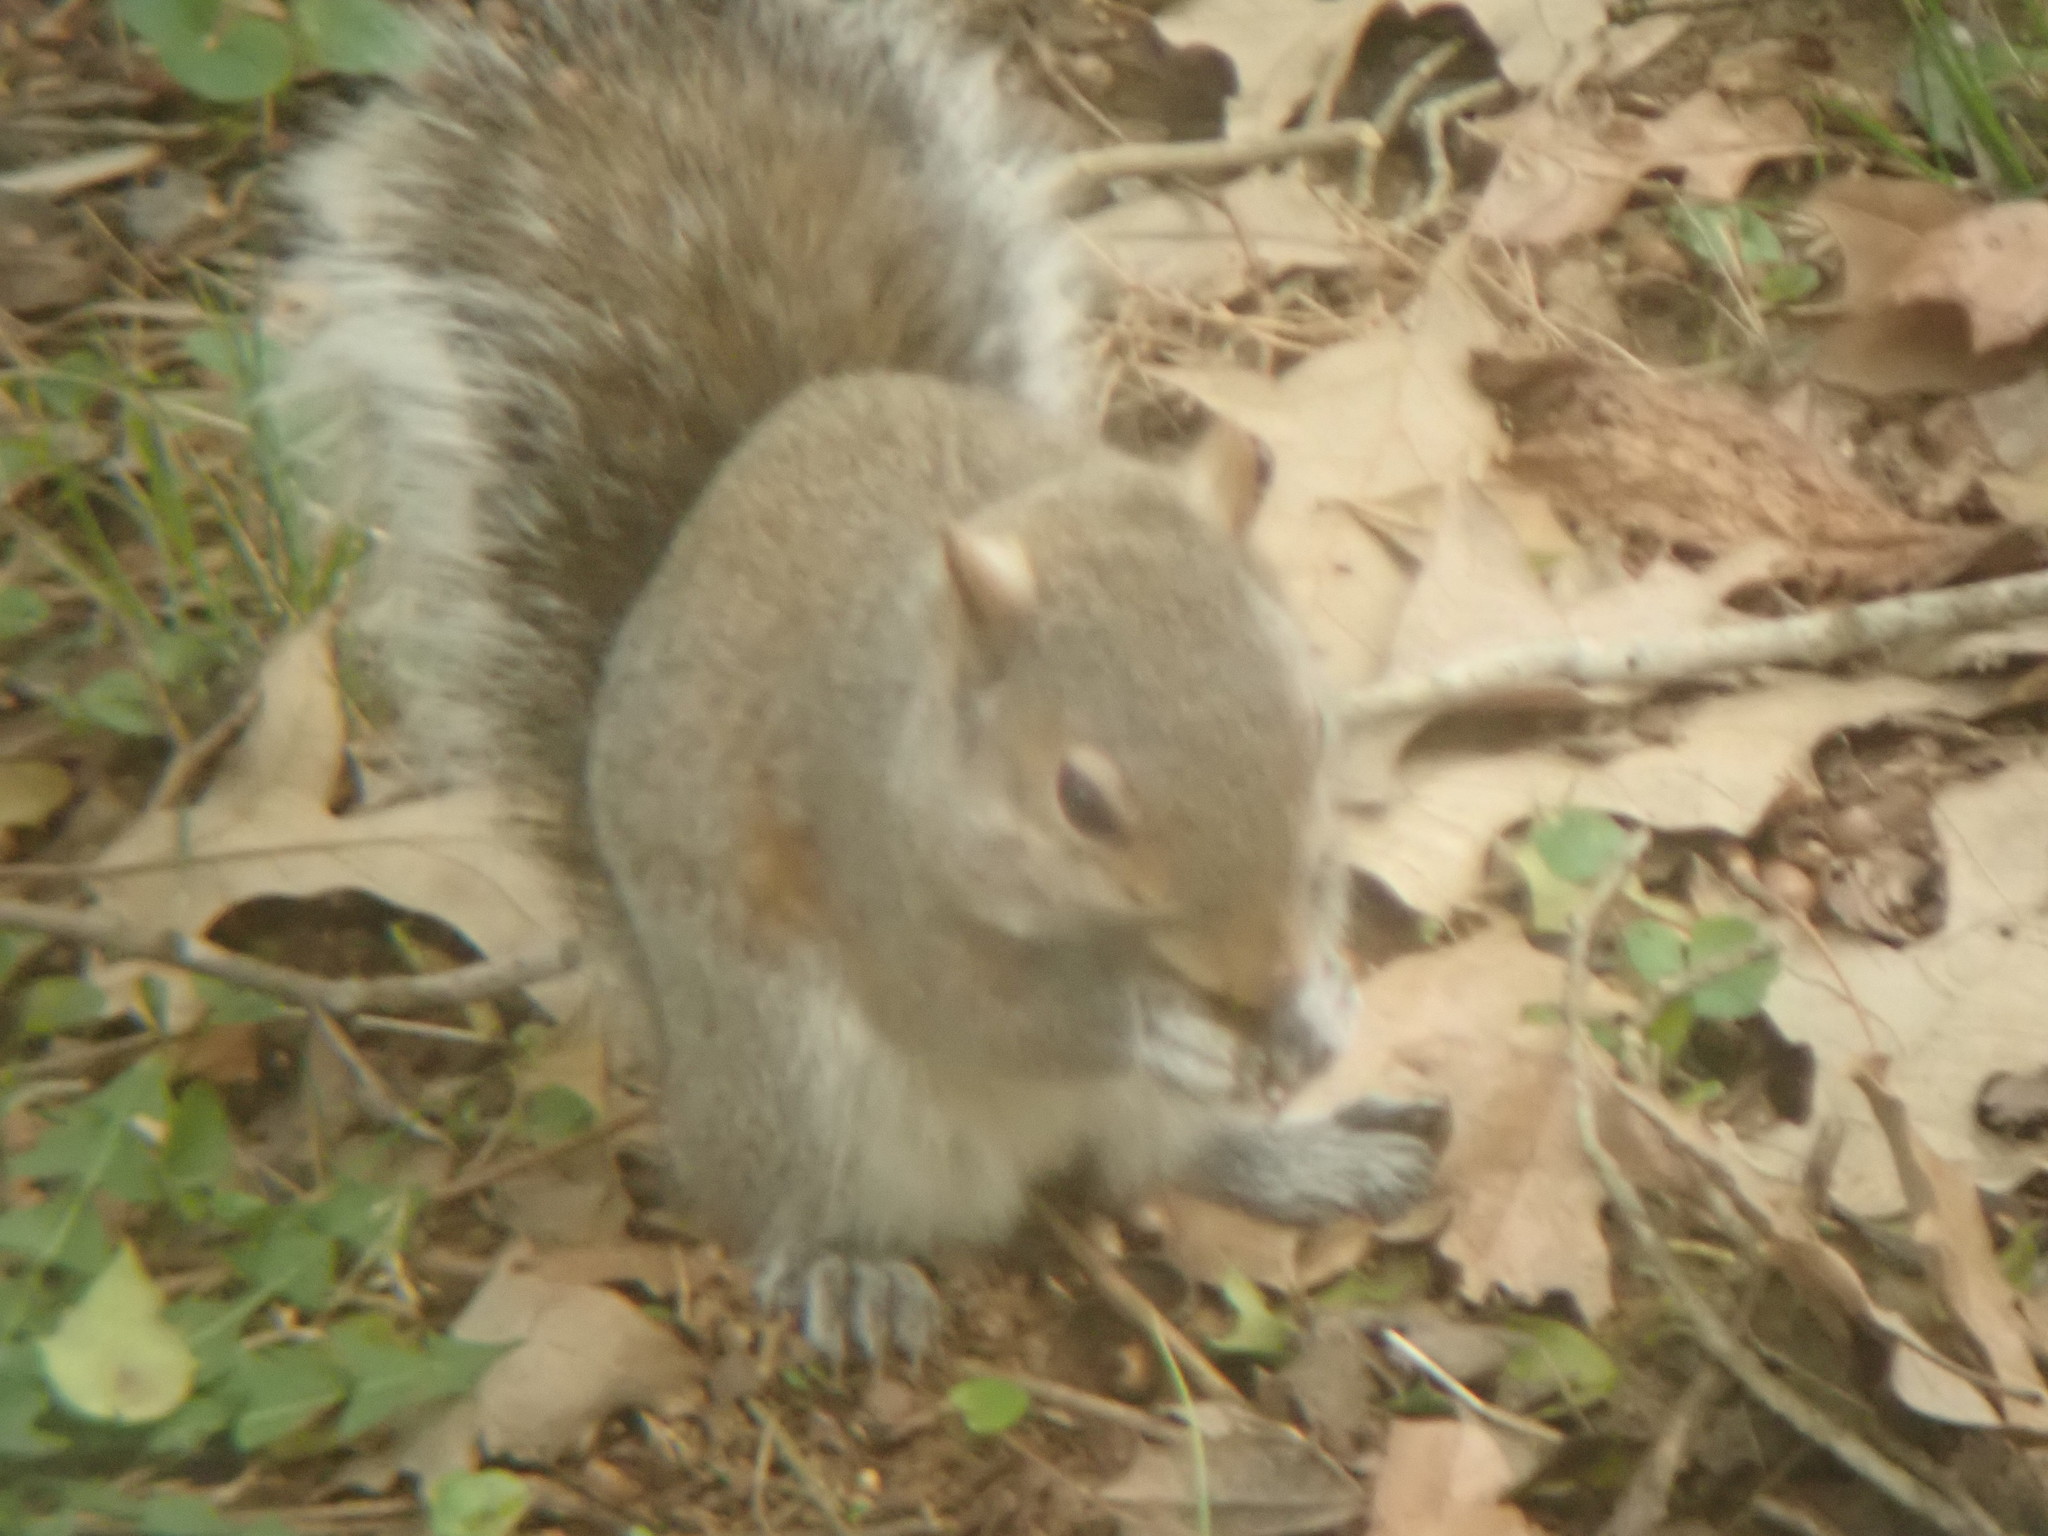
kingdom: Animalia
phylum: Chordata
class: Mammalia
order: Rodentia
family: Sciuridae
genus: Sciurus
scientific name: Sciurus carolinensis
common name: Eastern gray squirrel
